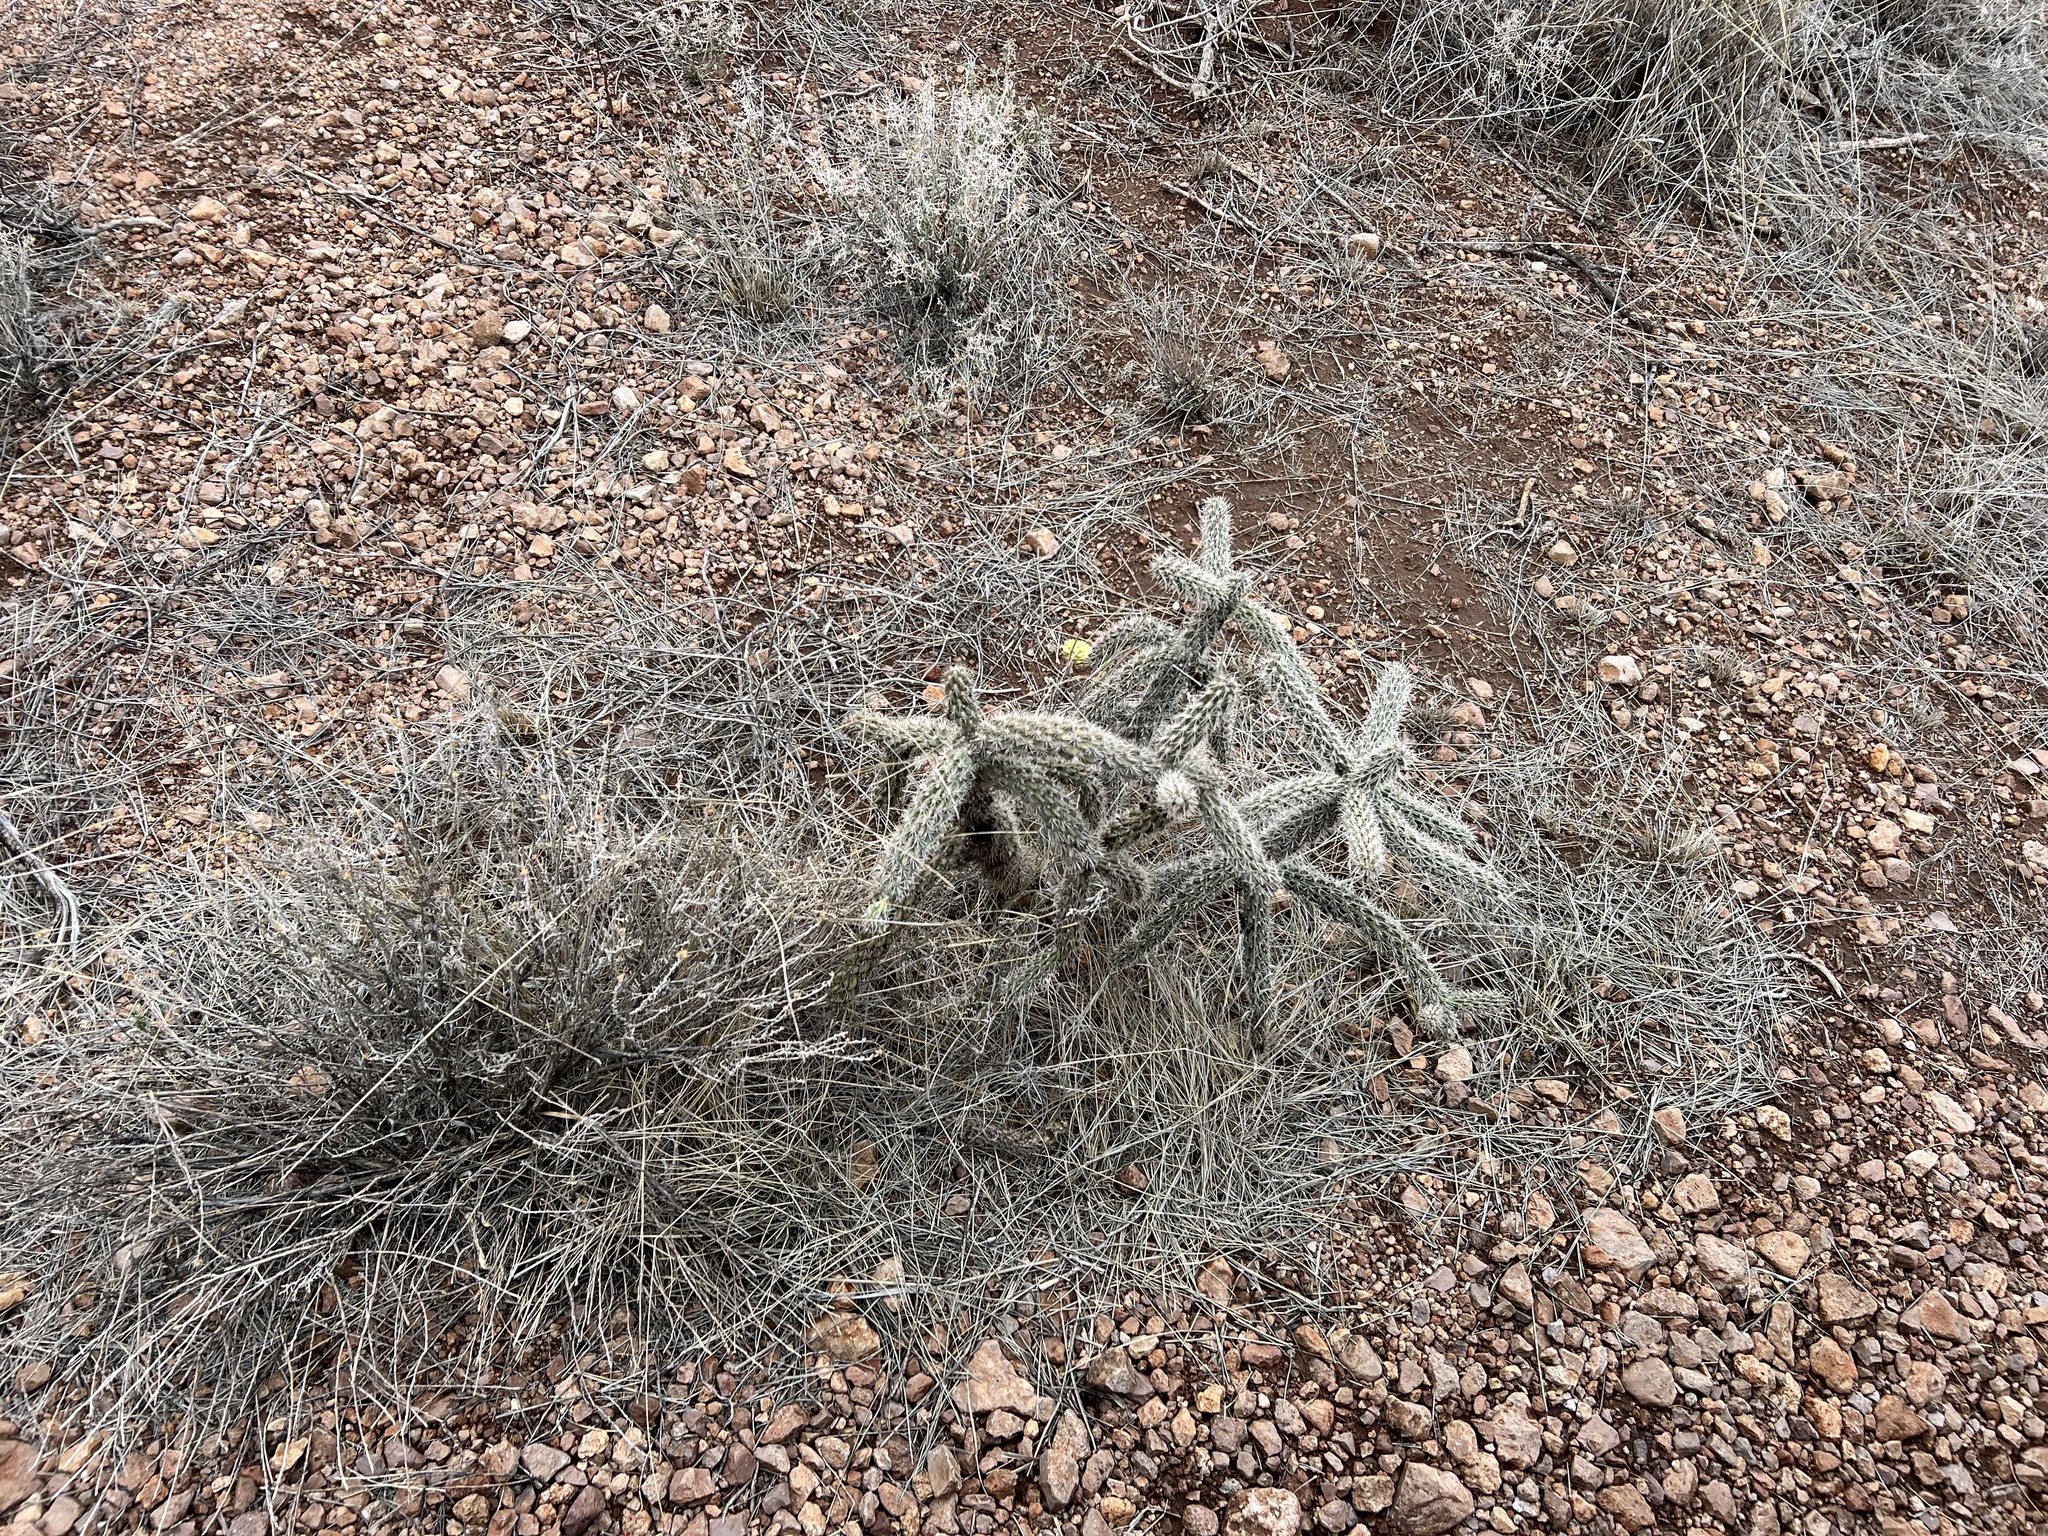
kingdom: Plantae
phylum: Tracheophyta
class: Magnoliopsida
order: Caryophyllales
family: Cactaceae
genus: Cylindropuntia
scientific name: Cylindropuntia imbricata
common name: Candelabrum cactus
